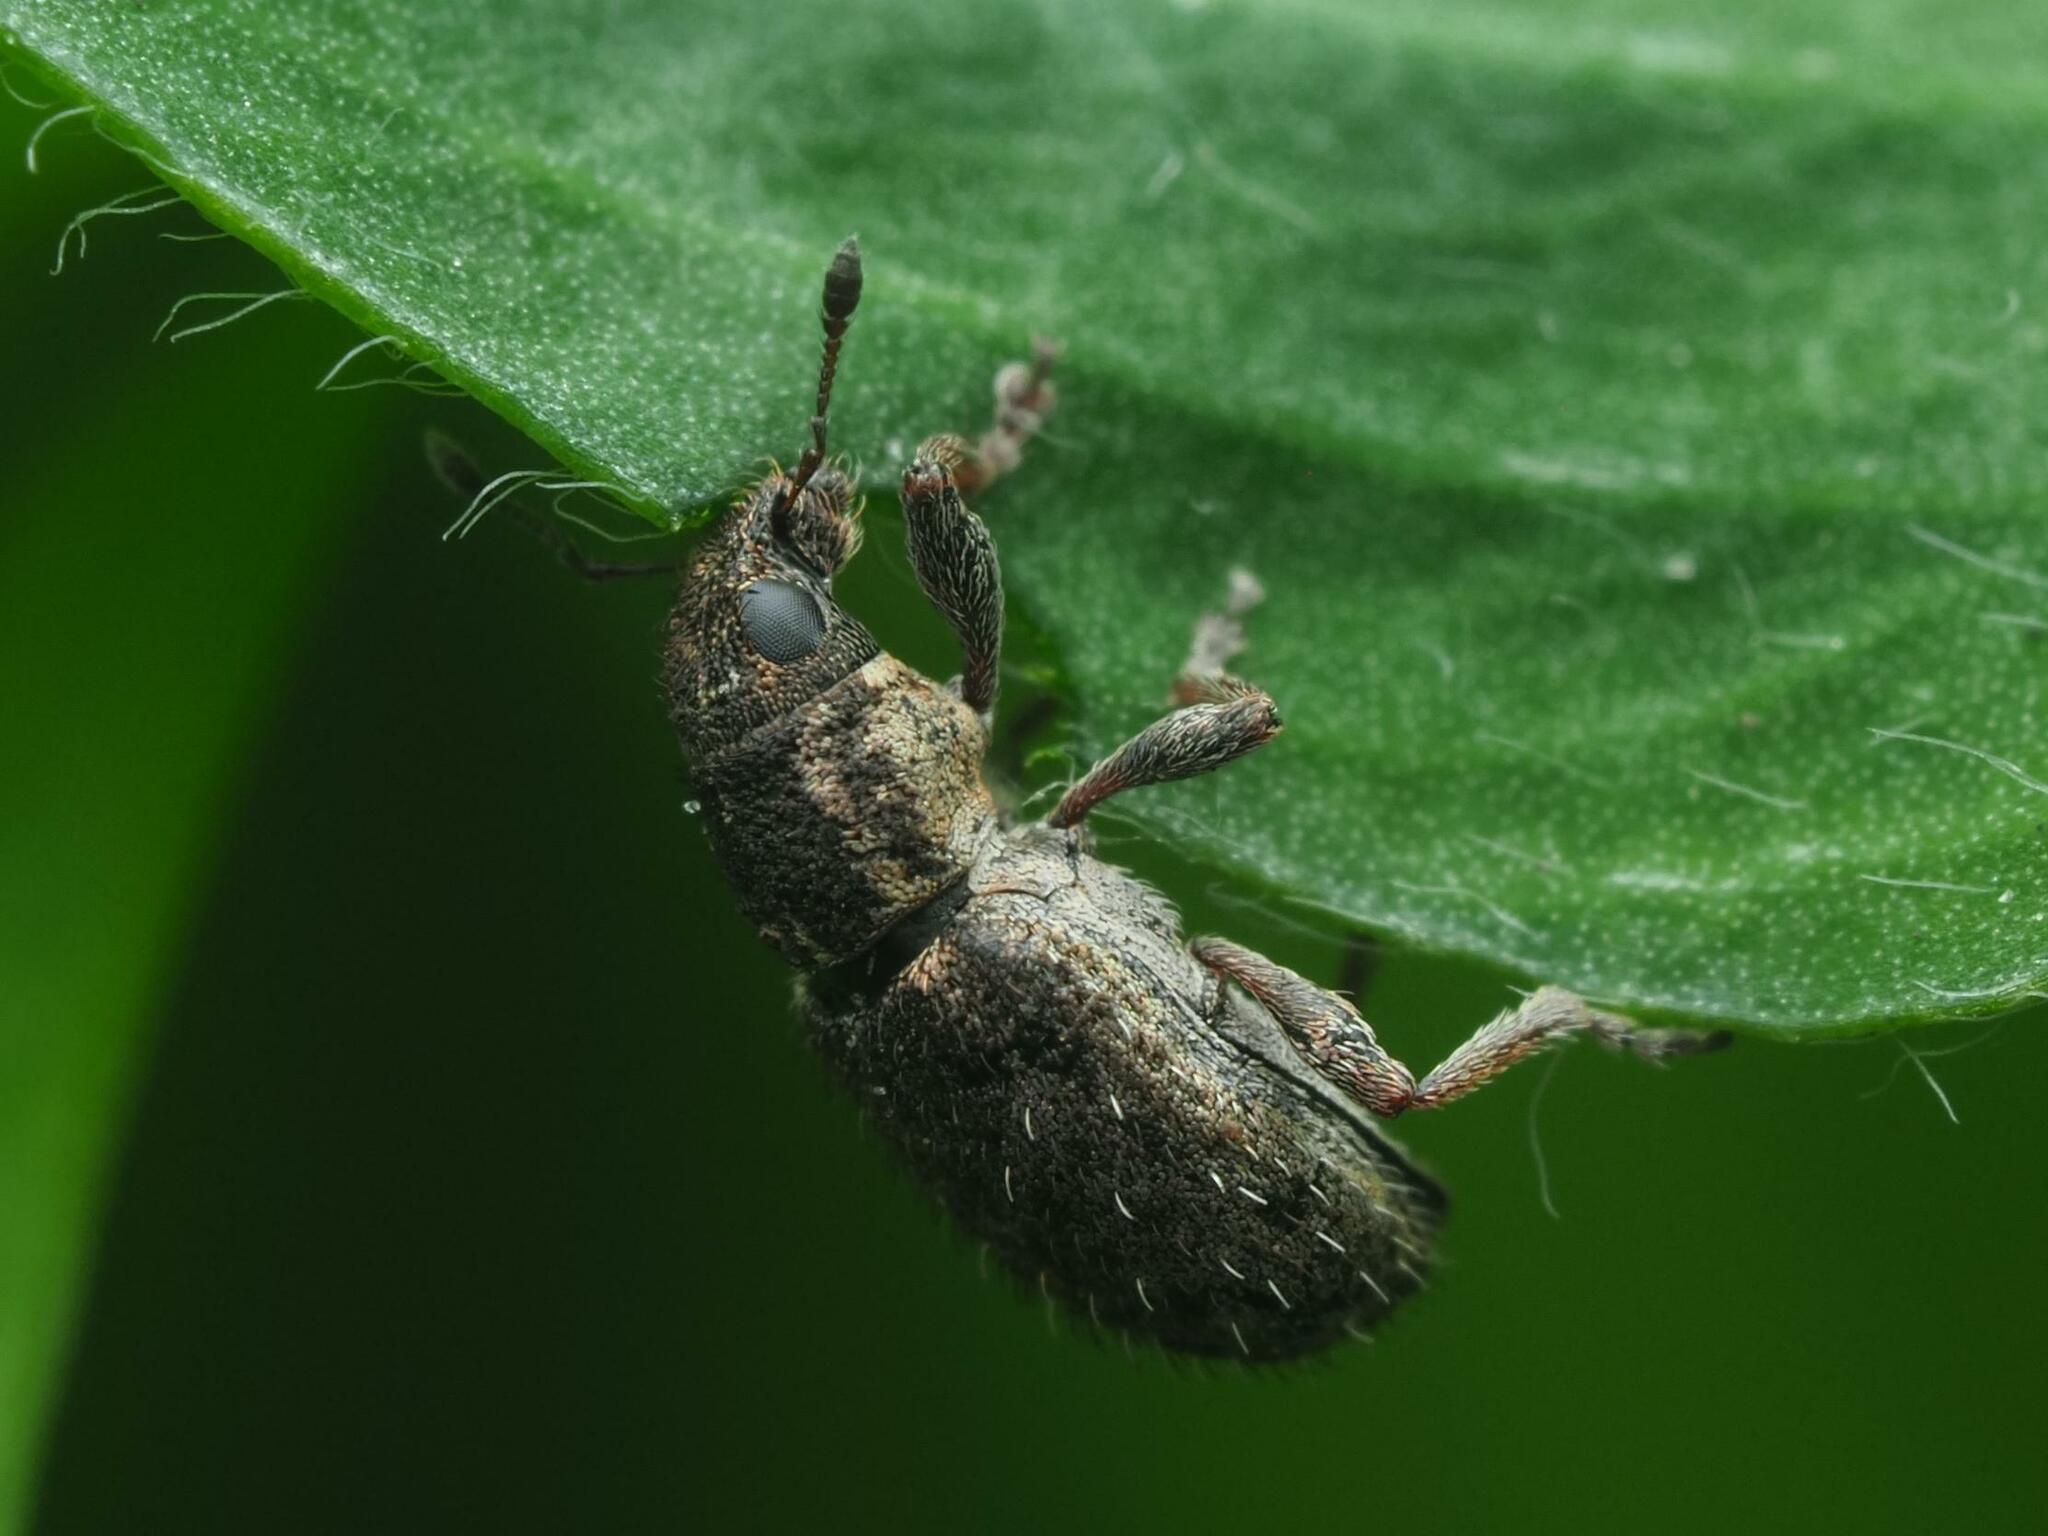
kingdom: Animalia
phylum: Arthropoda
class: Insecta
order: Coleoptera
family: Curculionidae
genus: Sitona
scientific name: Sitona hispidulus
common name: Clover weevil
